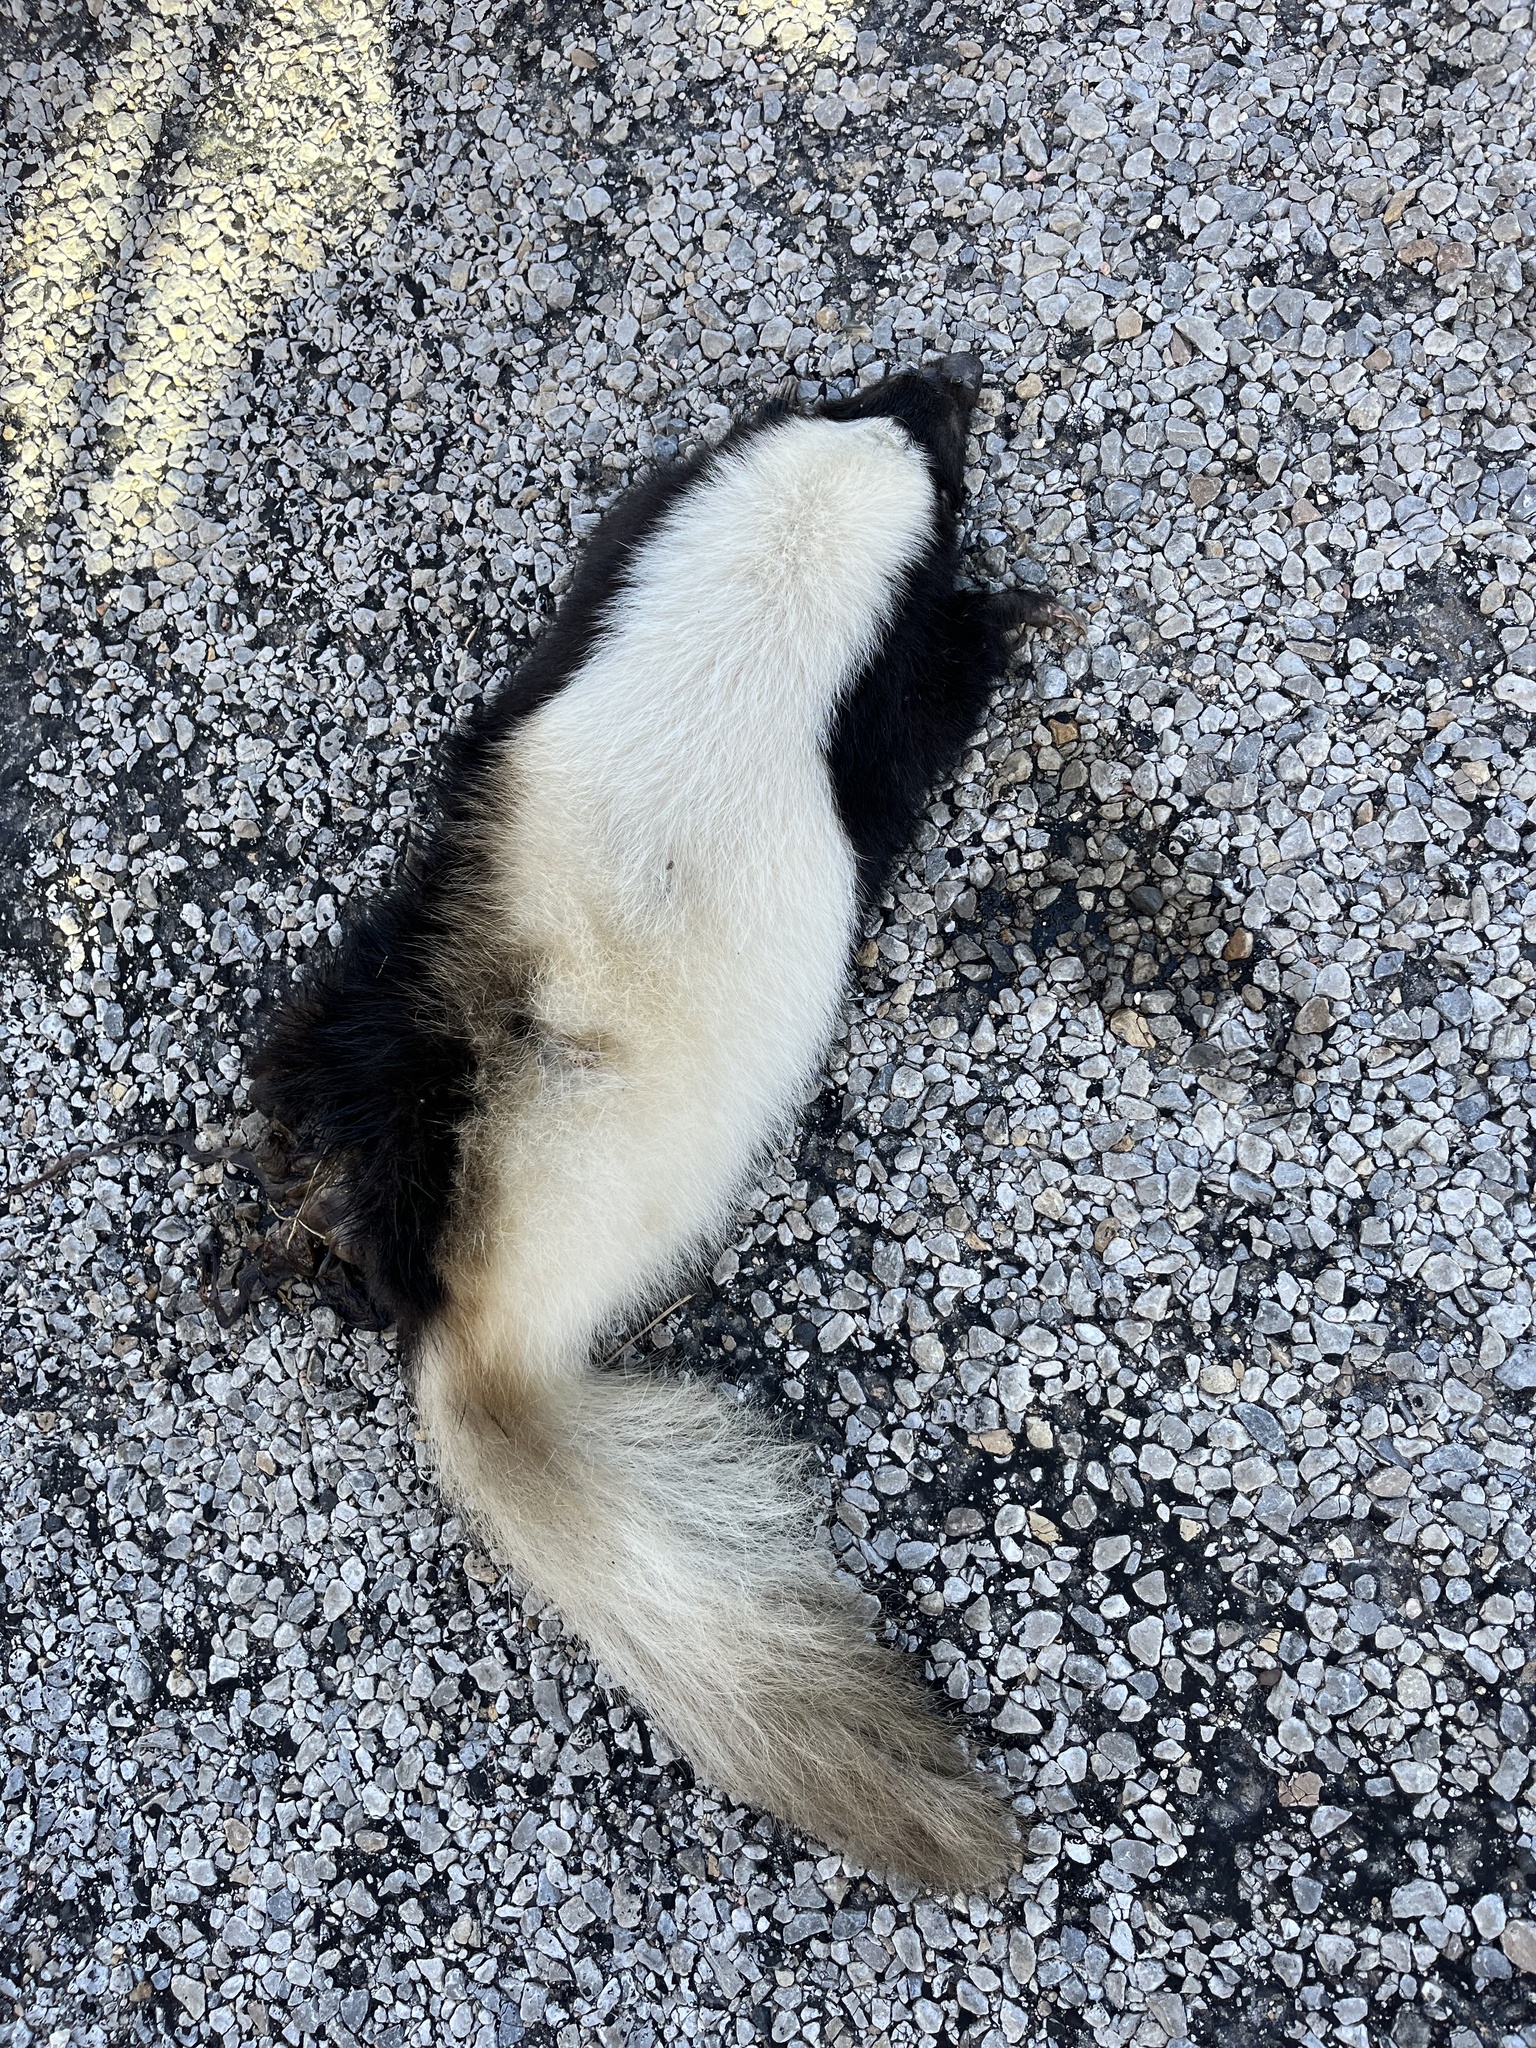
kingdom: Animalia
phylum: Chordata
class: Mammalia
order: Carnivora
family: Mephitidae
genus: Conepatus
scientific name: Conepatus leuconotus
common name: Eastern hog-nosed skunk
